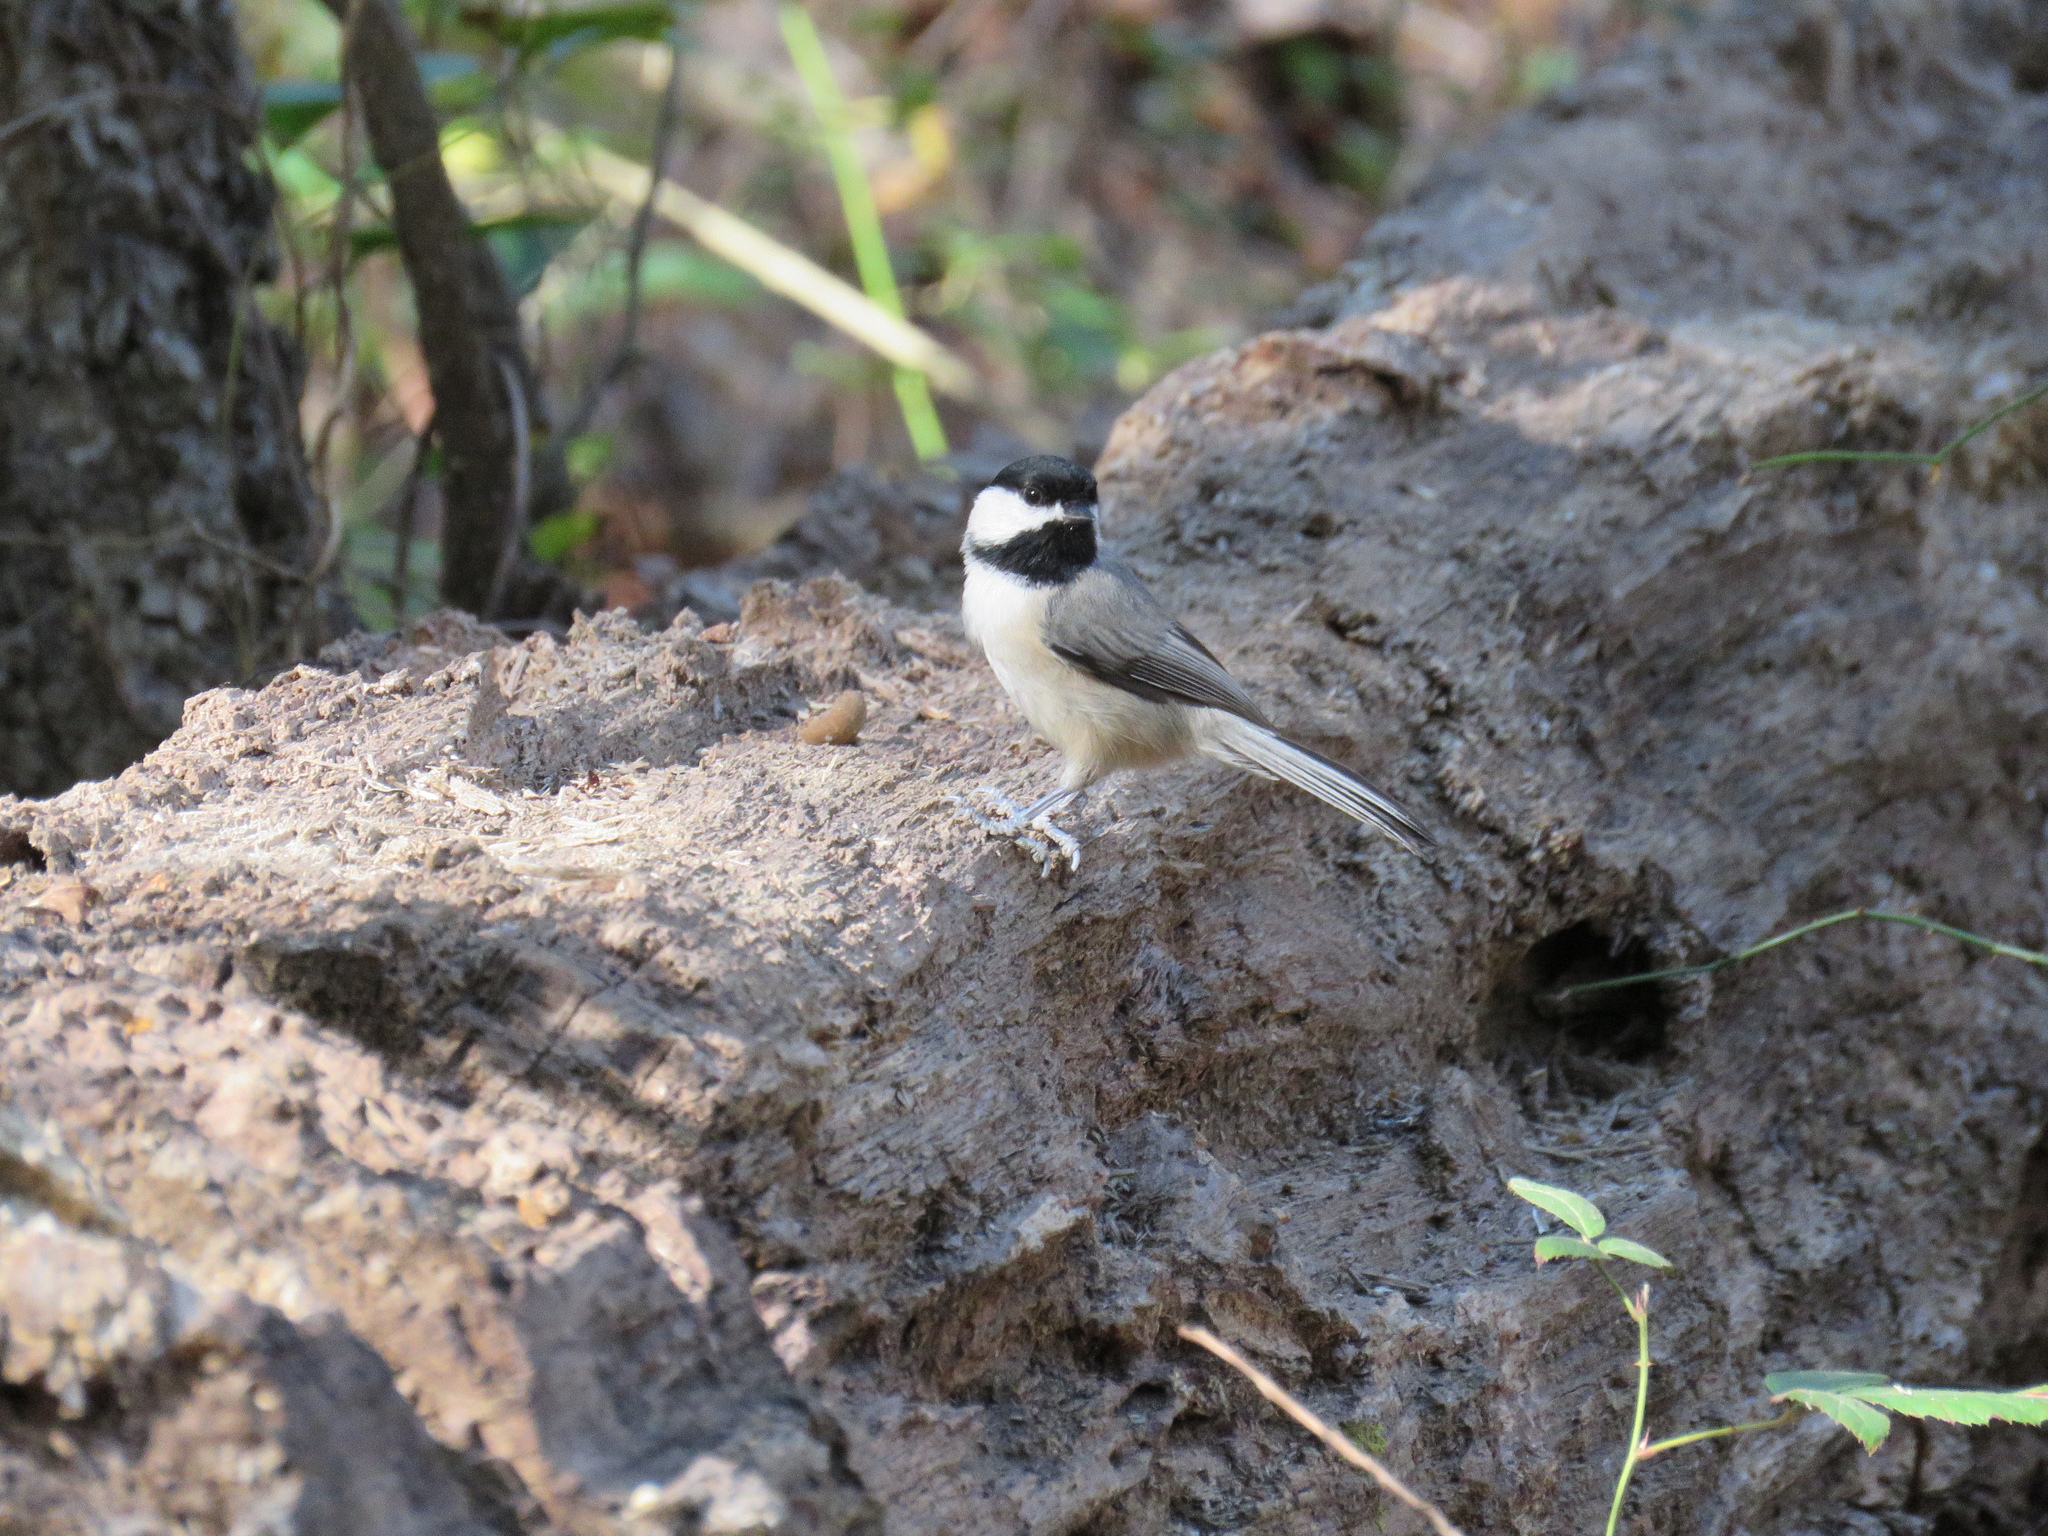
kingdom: Animalia
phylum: Chordata
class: Aves
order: Passeriformes
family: Paridae
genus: Poecile
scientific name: Poecile carolinensis
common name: Carolina chickadee
